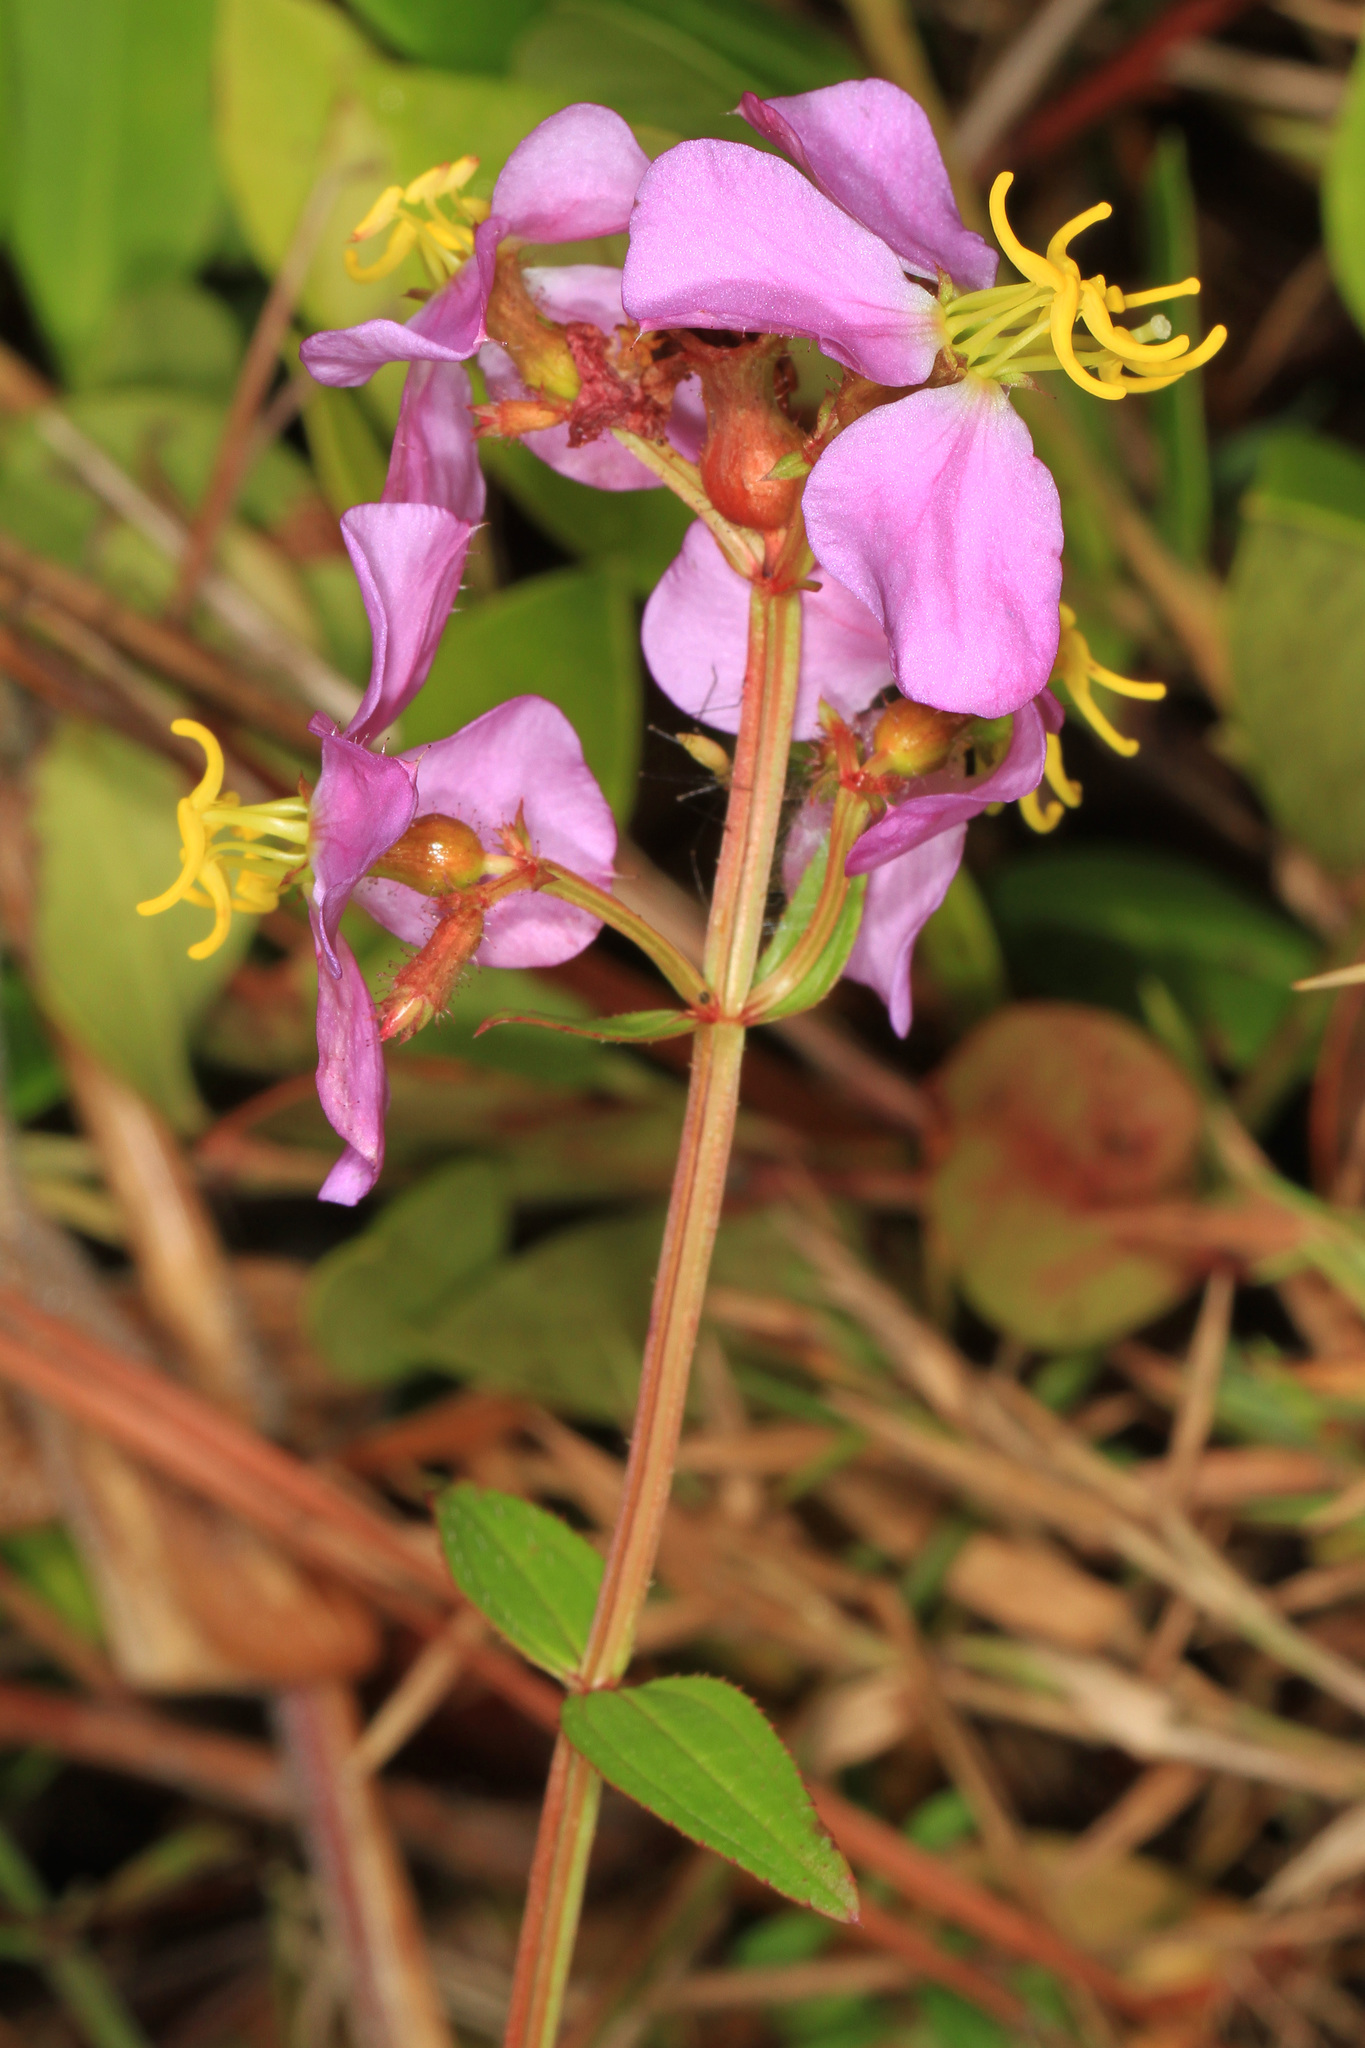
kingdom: Plantae
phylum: Tracheophyta
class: Magnoliopsida
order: Myrtales
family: Melastomataceae
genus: Rhexia
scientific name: Rhexia virginica
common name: Common meadow beauty
